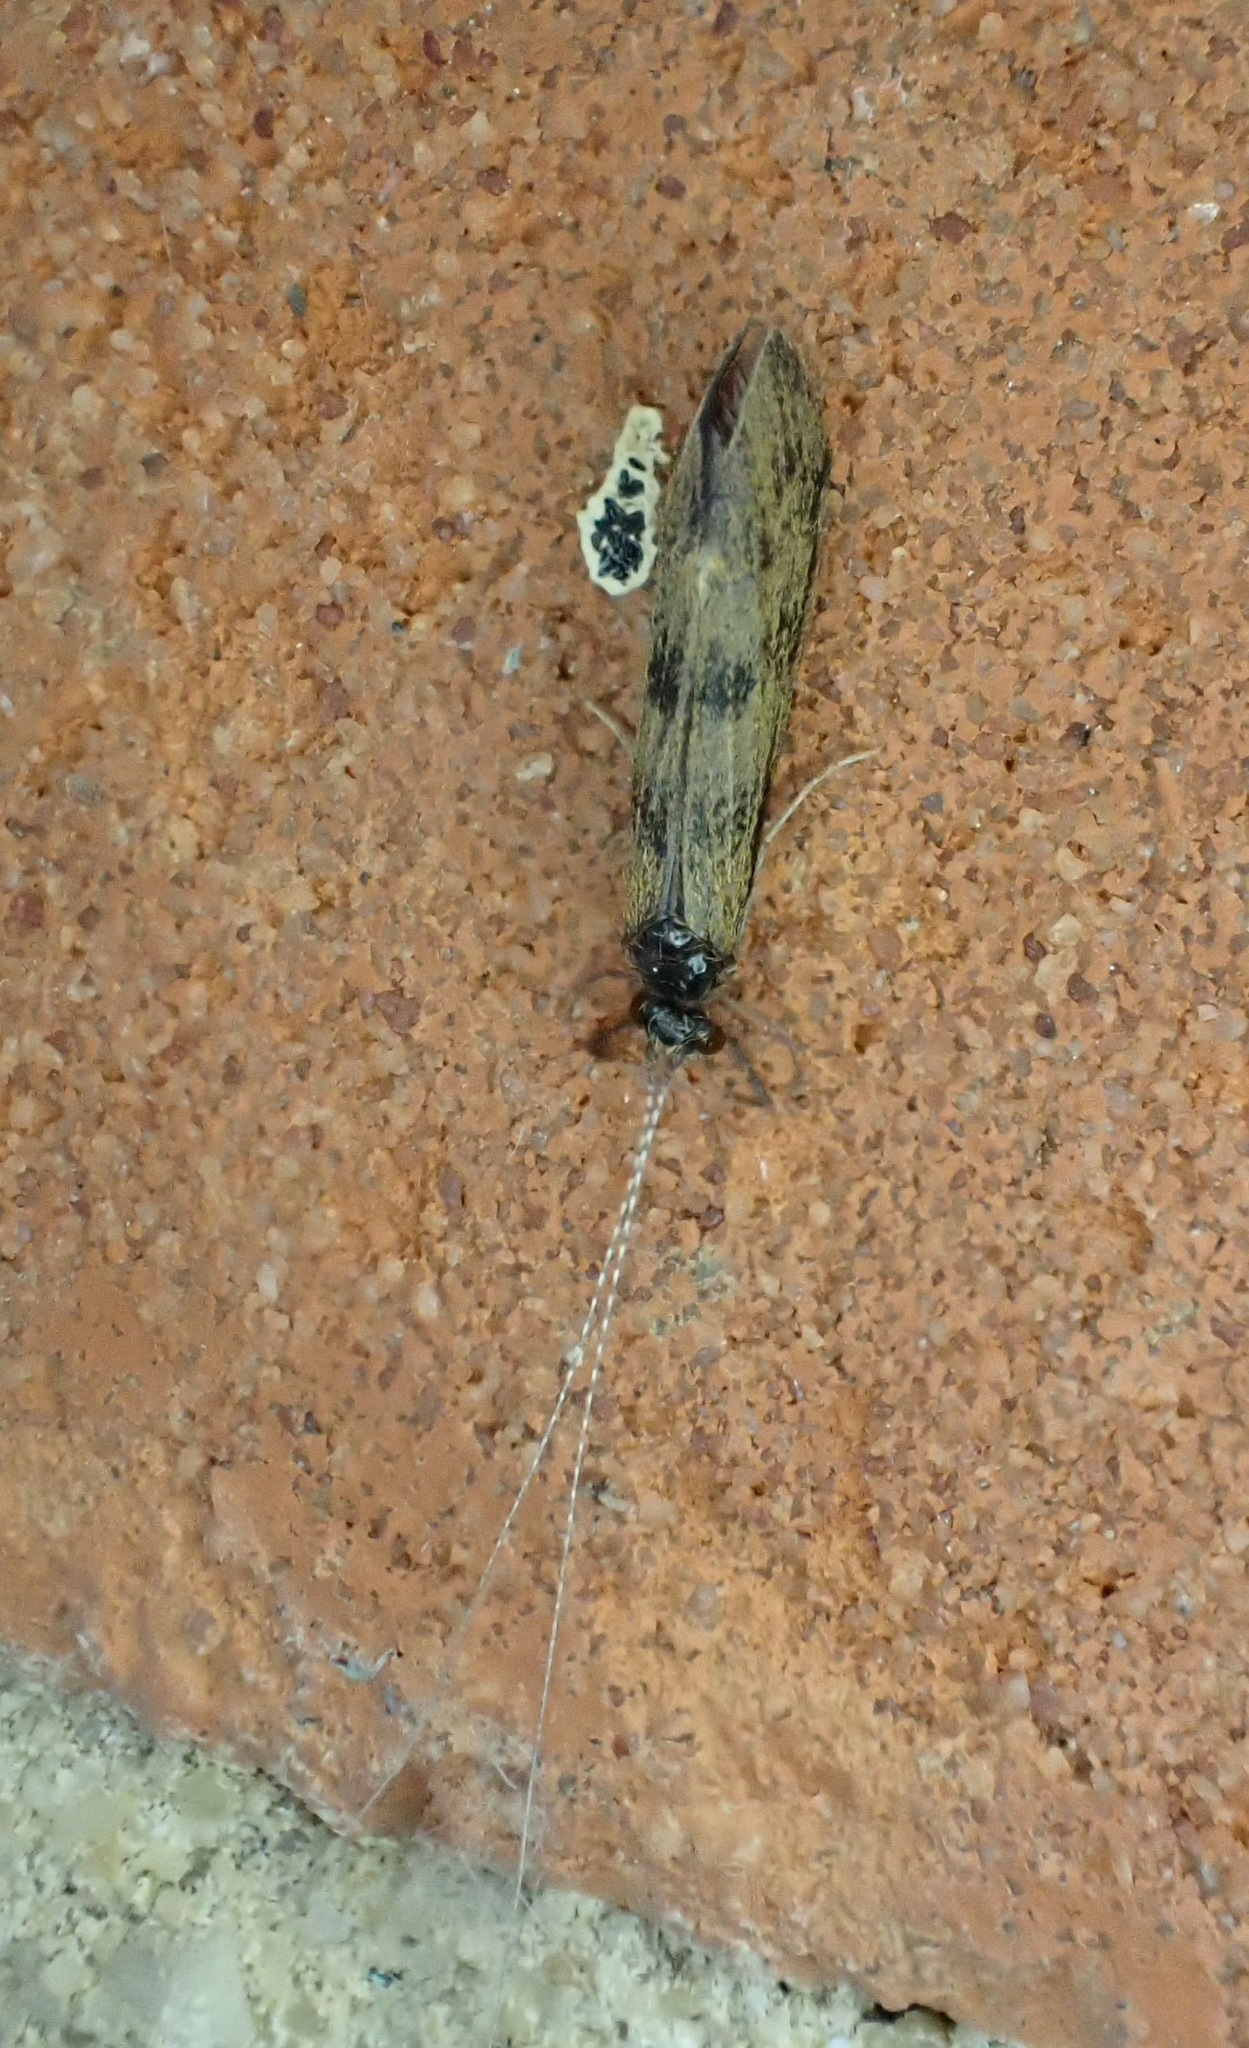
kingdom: Animalia
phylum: Arthropoda
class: Insecta
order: Trichoptera
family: Leptoceridae
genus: Mystacides
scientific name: Mystacides longicornis
